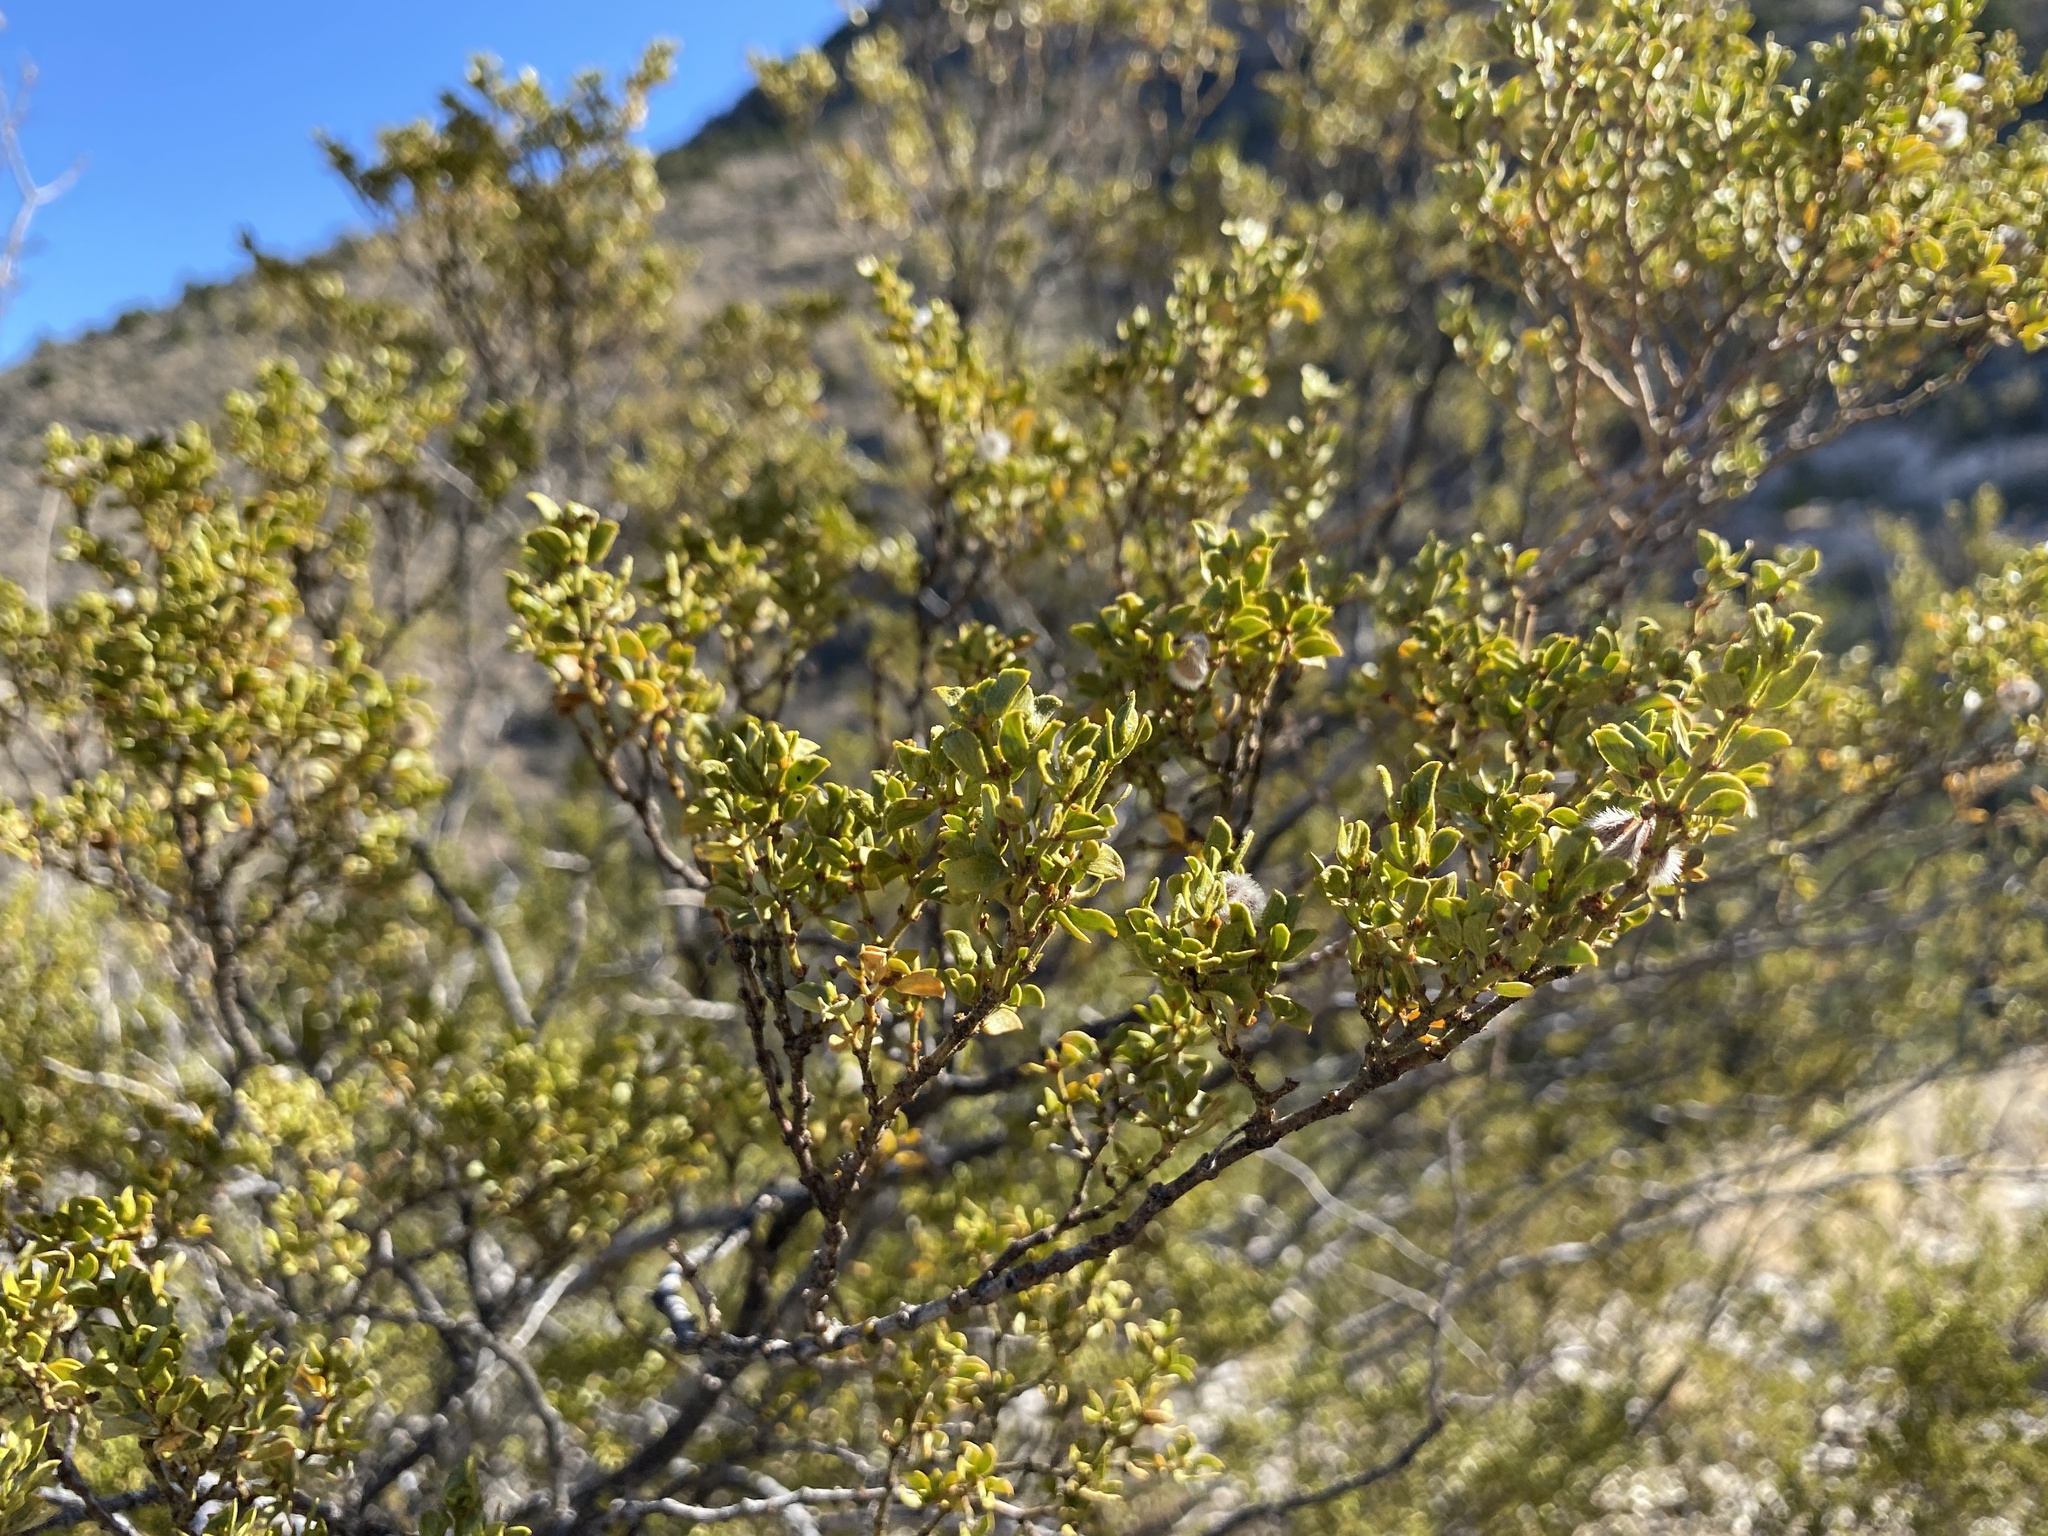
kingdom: Plantae
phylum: Tracheophyta
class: Magnoliopsida
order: Zygophyllales
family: Zygophyllaceae
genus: Larrea
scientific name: Larrea tridentata
